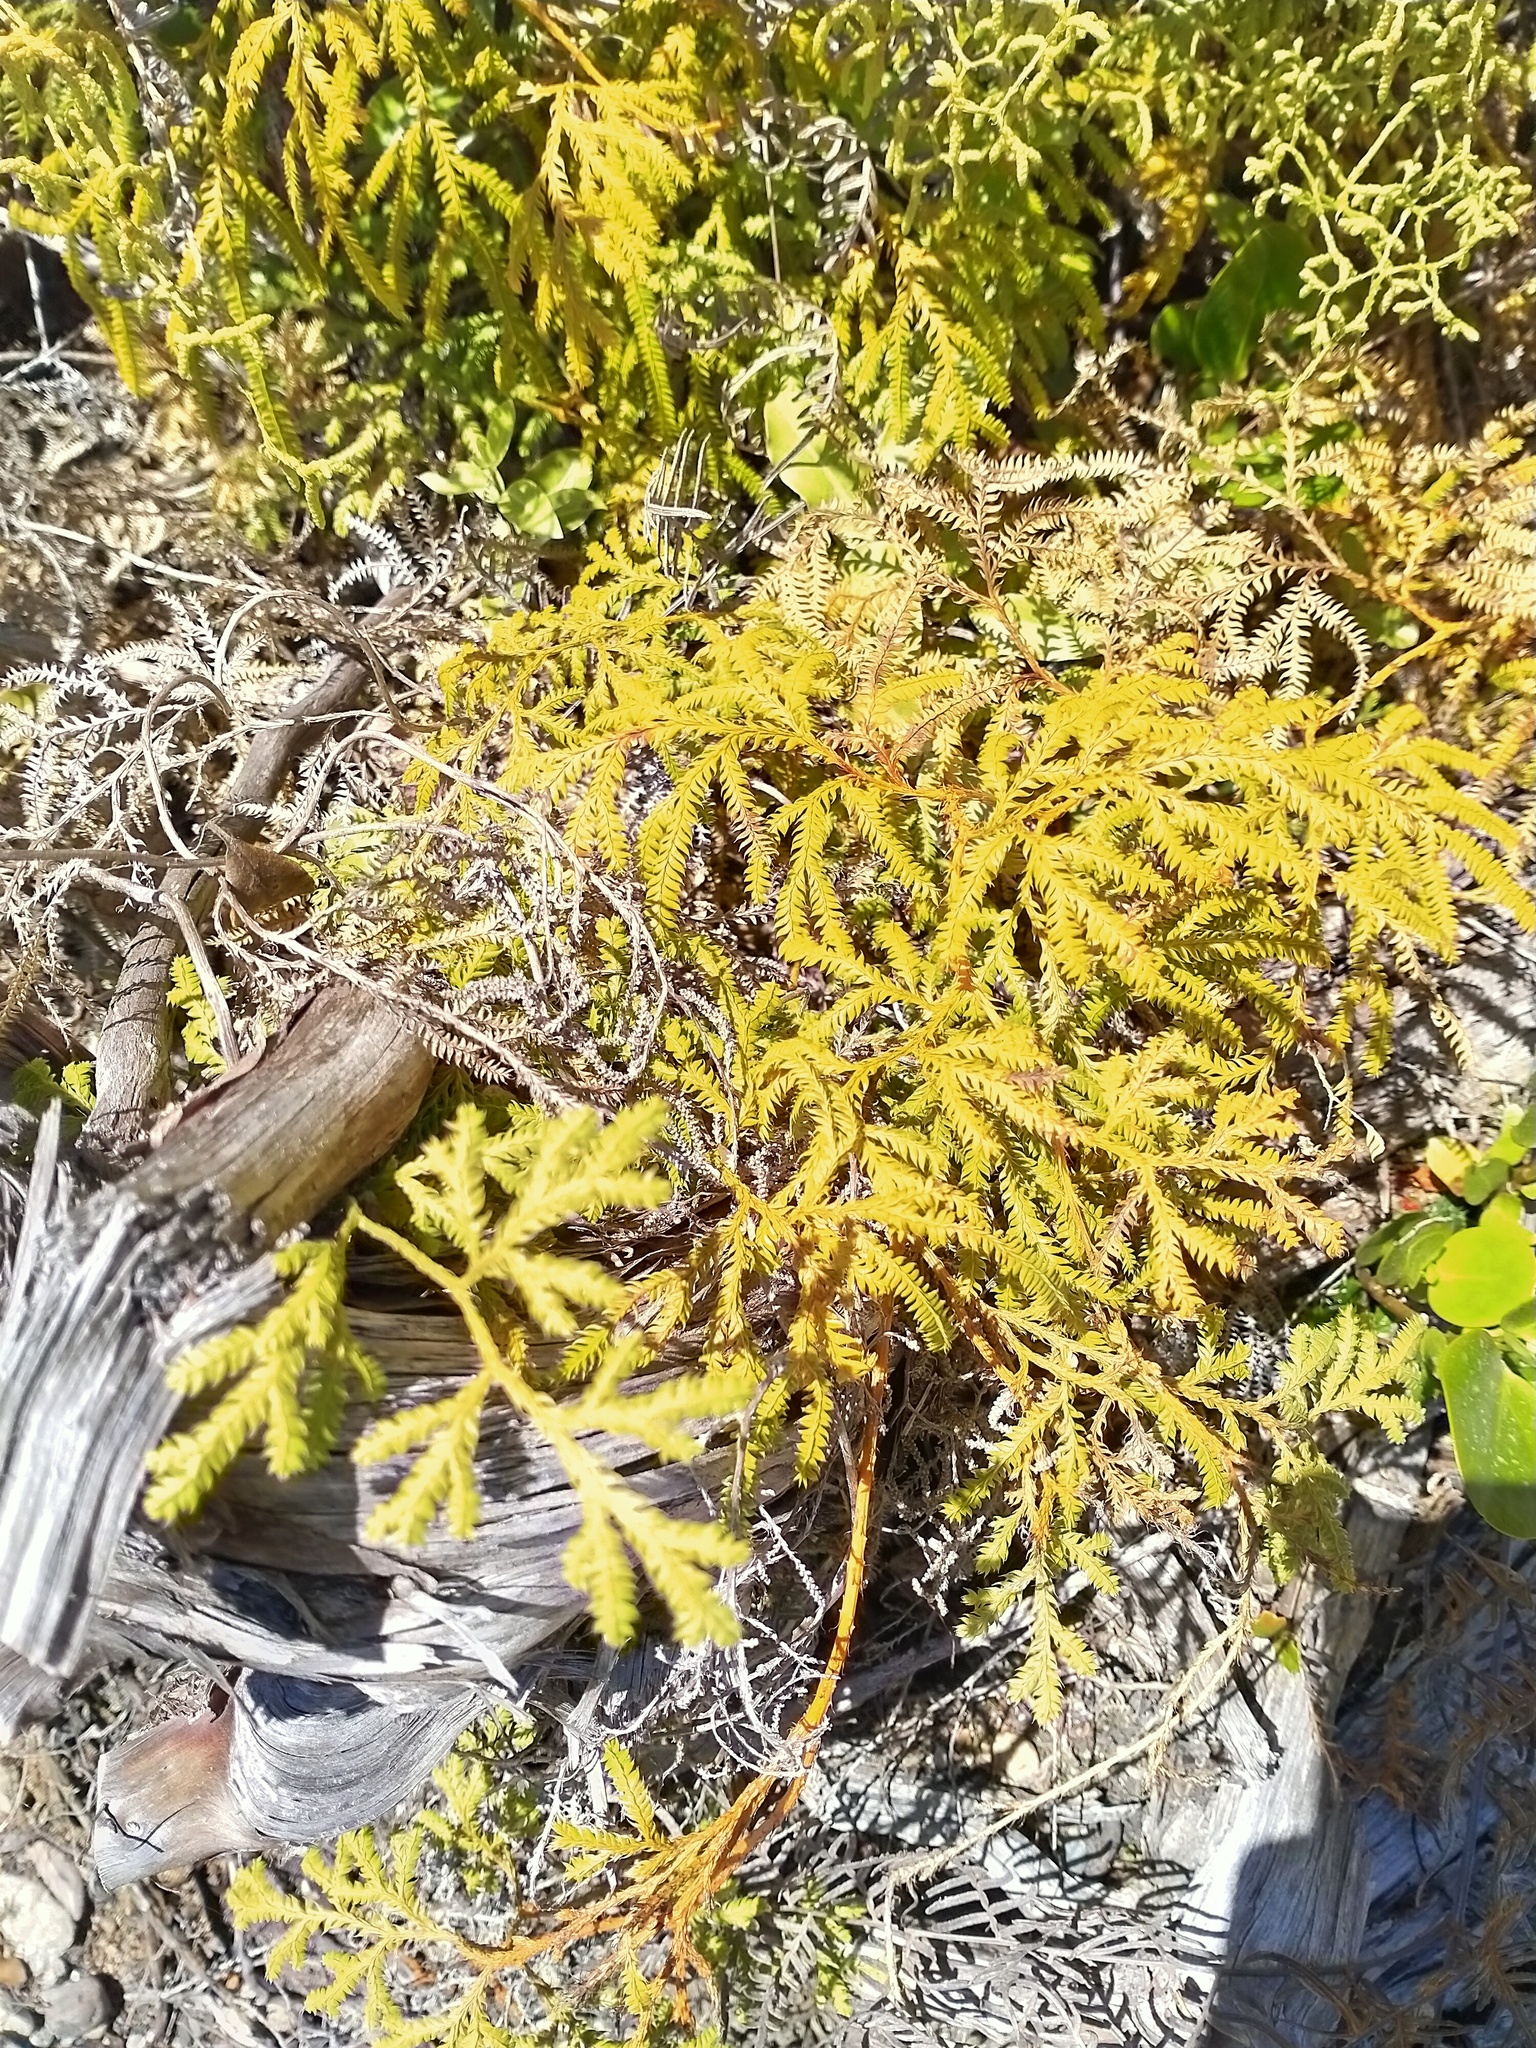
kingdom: Plantae
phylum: Tracheophyta
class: Lycopodiopsida
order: Lycopodiales
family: Lycopodiaceae
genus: Lycopodium
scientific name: Lycopodium volubile
